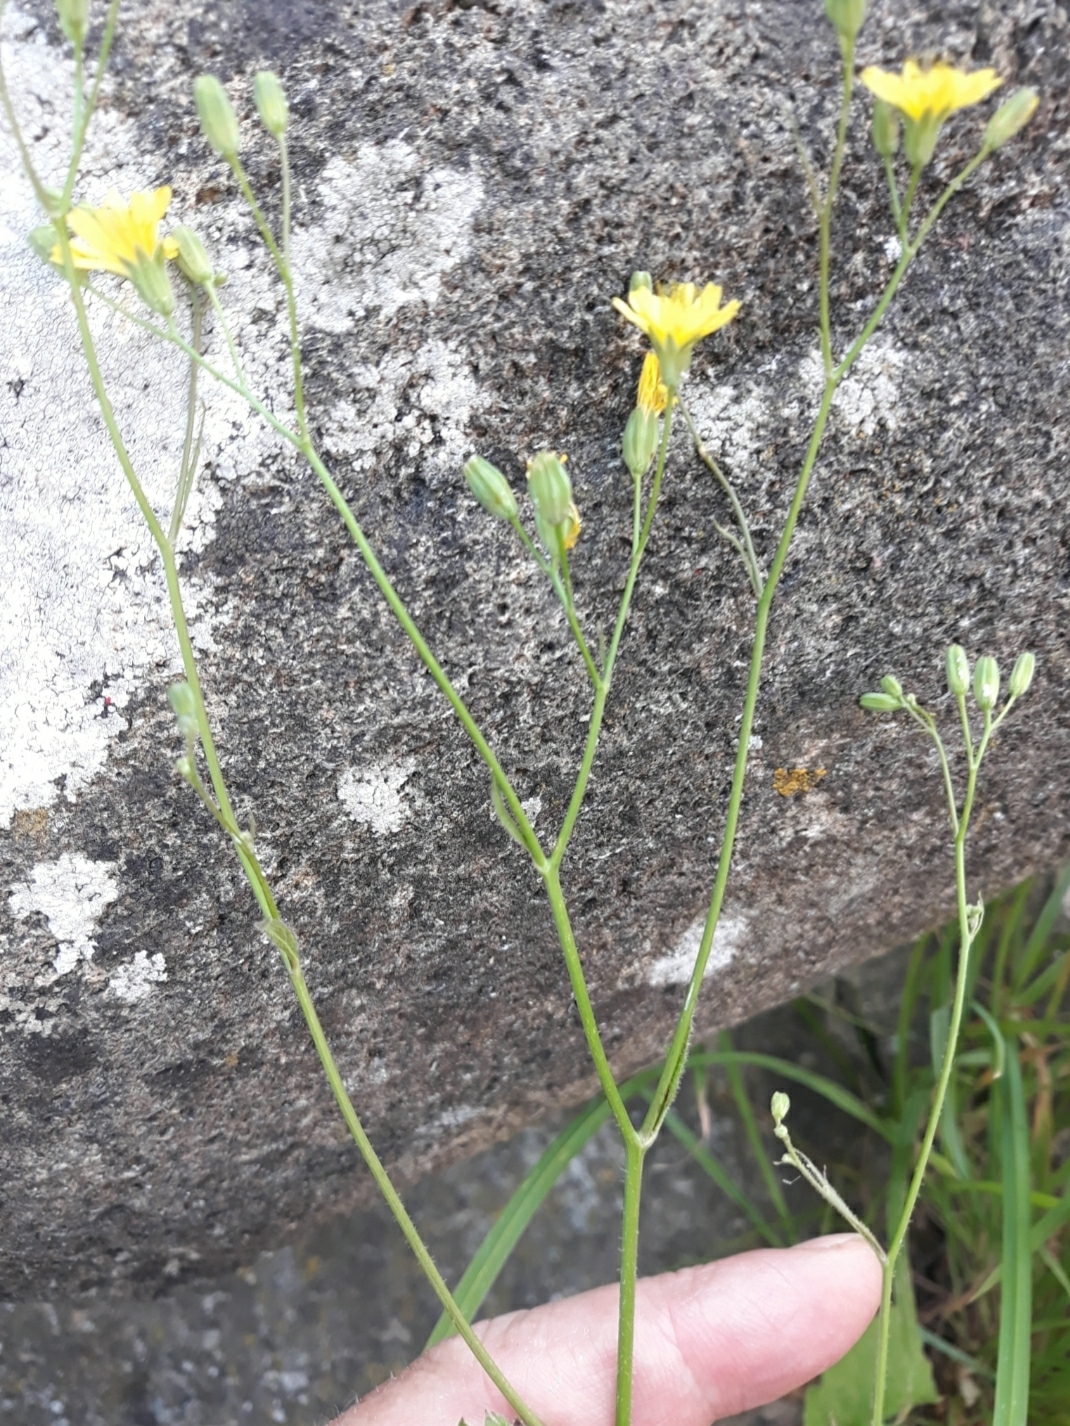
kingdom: Plantae
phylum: Tracheophyta
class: Magnoliopsida
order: Asterales
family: Asteraceae
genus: Lapsana
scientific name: Lapsana communis
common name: Nipplewort
